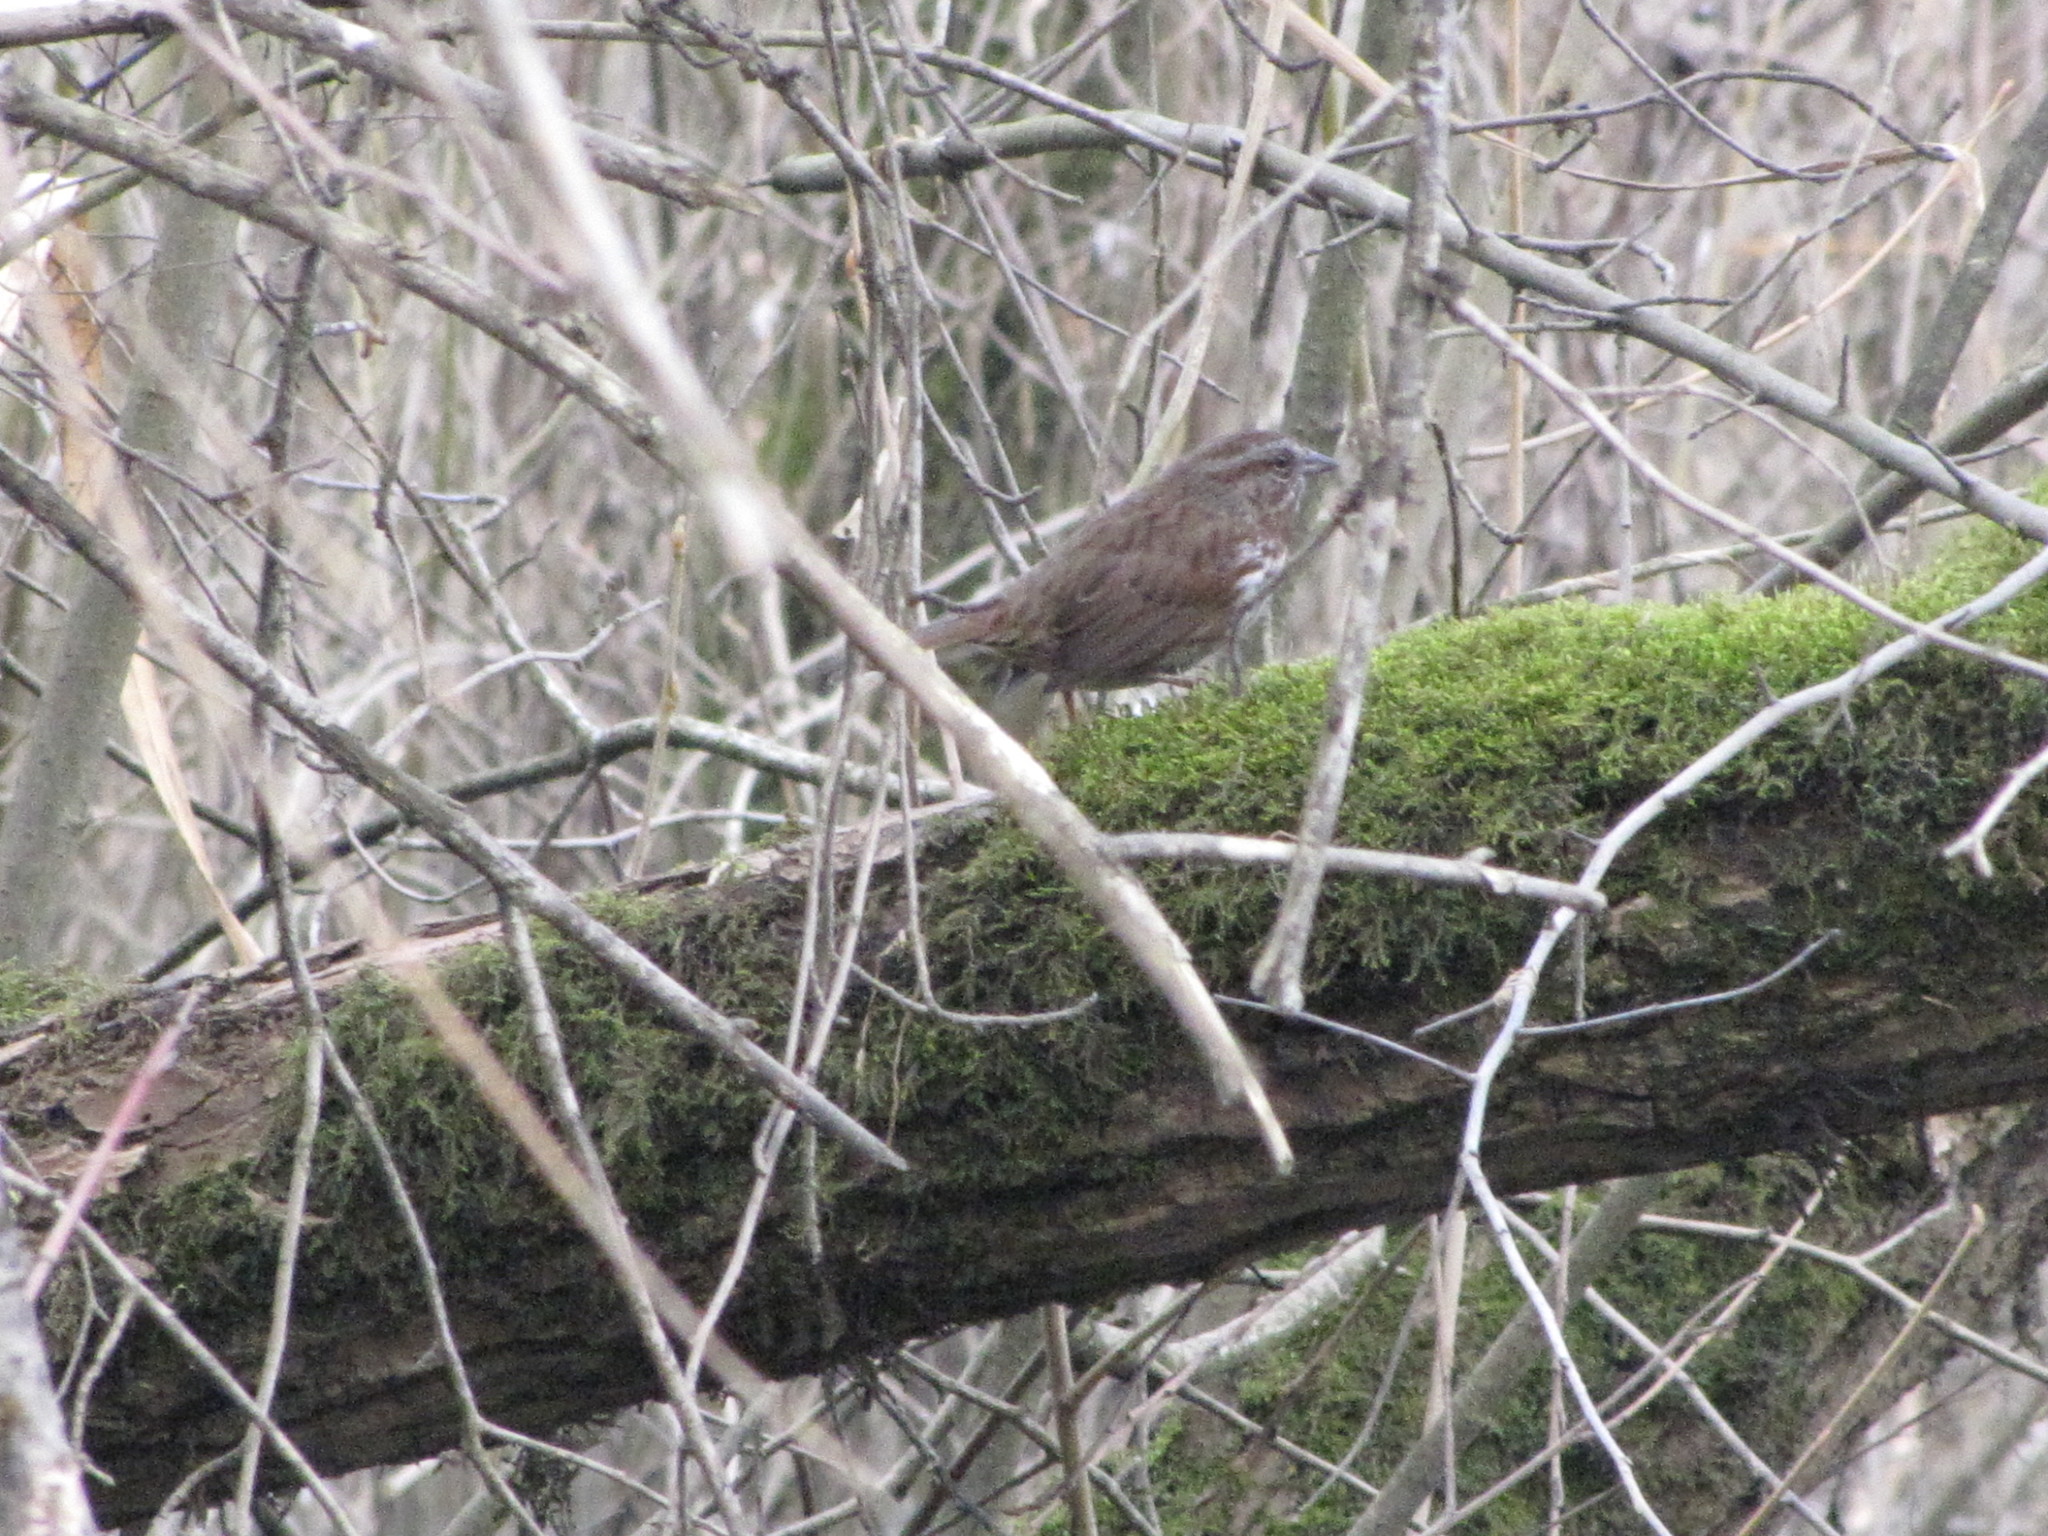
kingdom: Animalia
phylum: Chordata
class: Aves
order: Passeriformes
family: Passerellidae
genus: Melospiza
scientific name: Melospiza melodia
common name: Song sparrow
